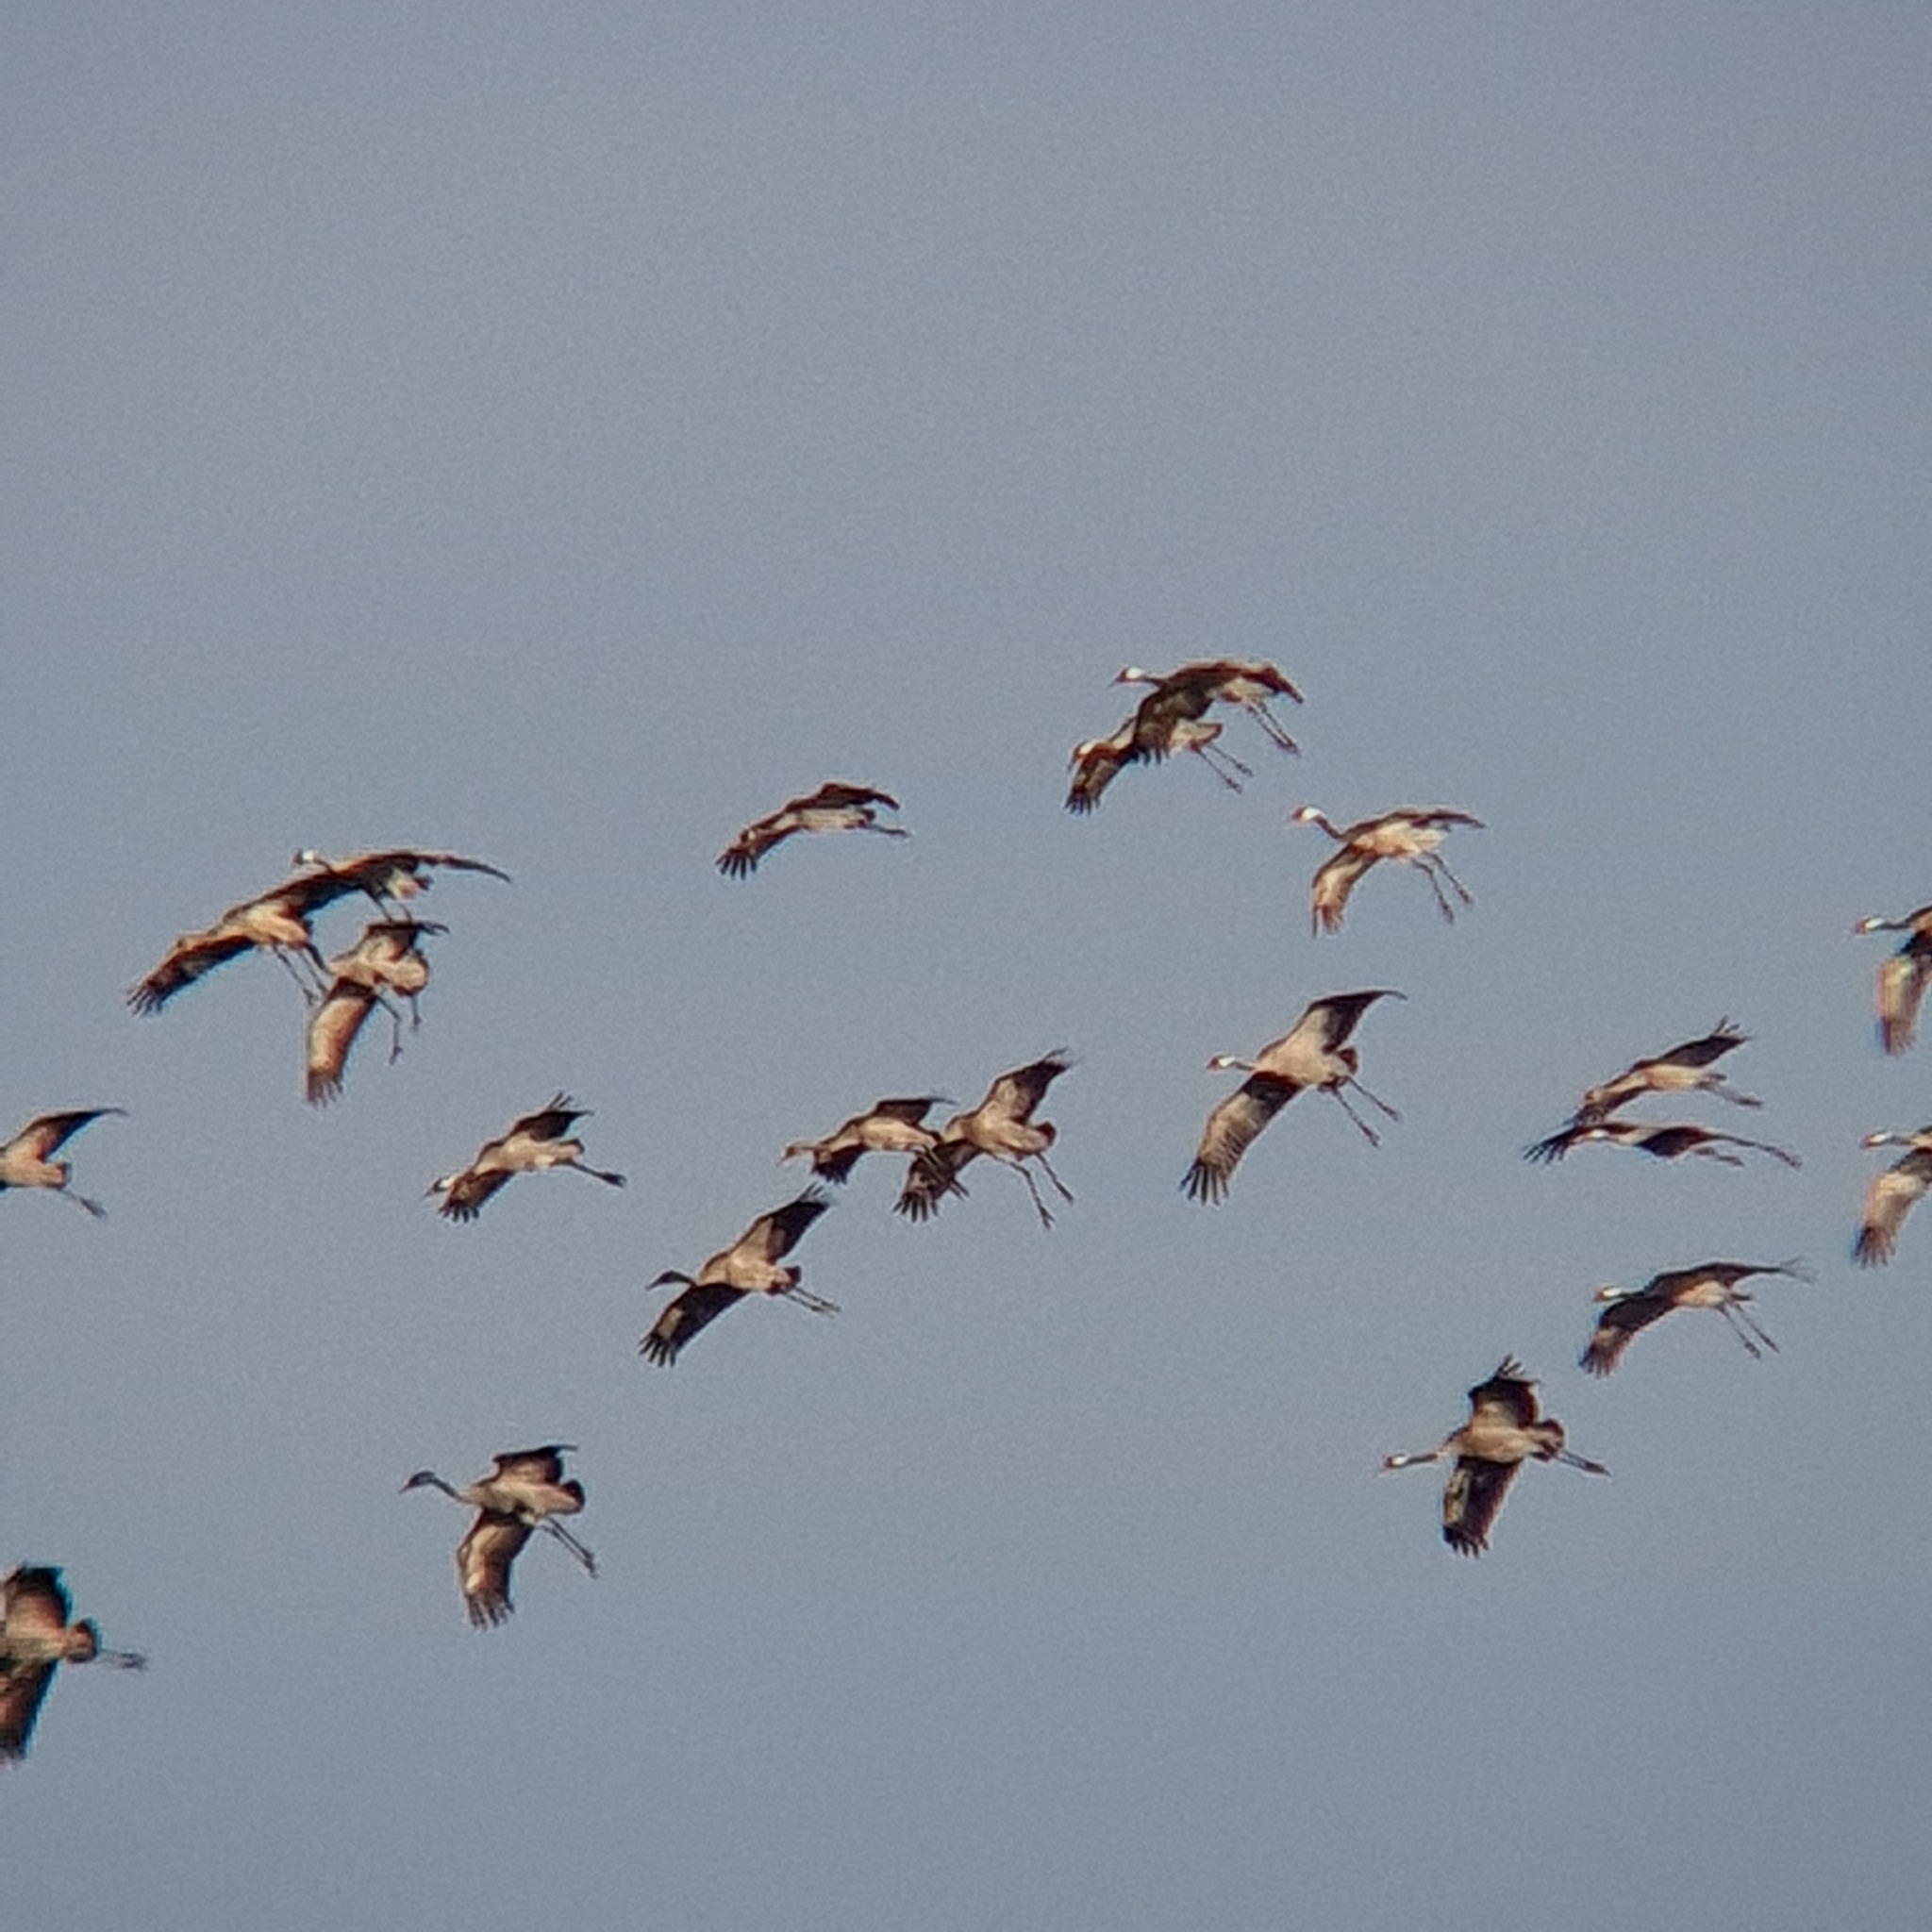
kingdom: Animalia
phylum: Chordata
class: Aves
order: Gruiformes
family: Gruidae
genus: Grus
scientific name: Grus grus
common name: Common crane
